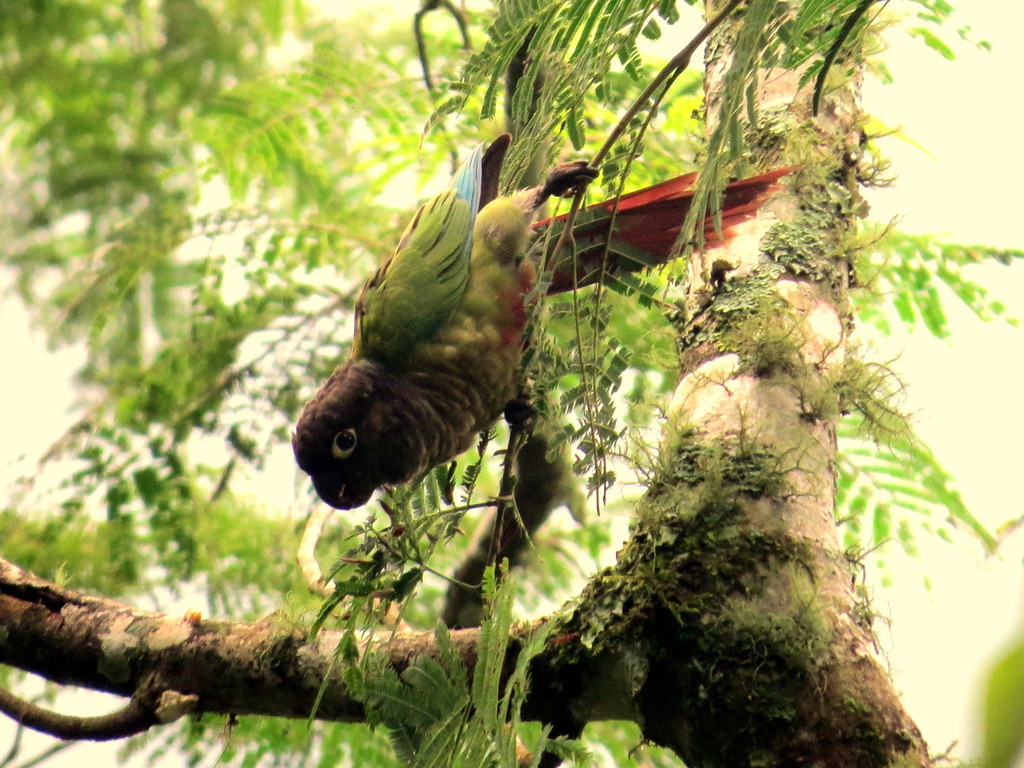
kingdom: Animalia
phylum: Chordata
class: Aves
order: Psittaciformes
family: Psittacidae
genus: Pyrrhura
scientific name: Pyrrhura molinae
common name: Green-cheeked parakeet
